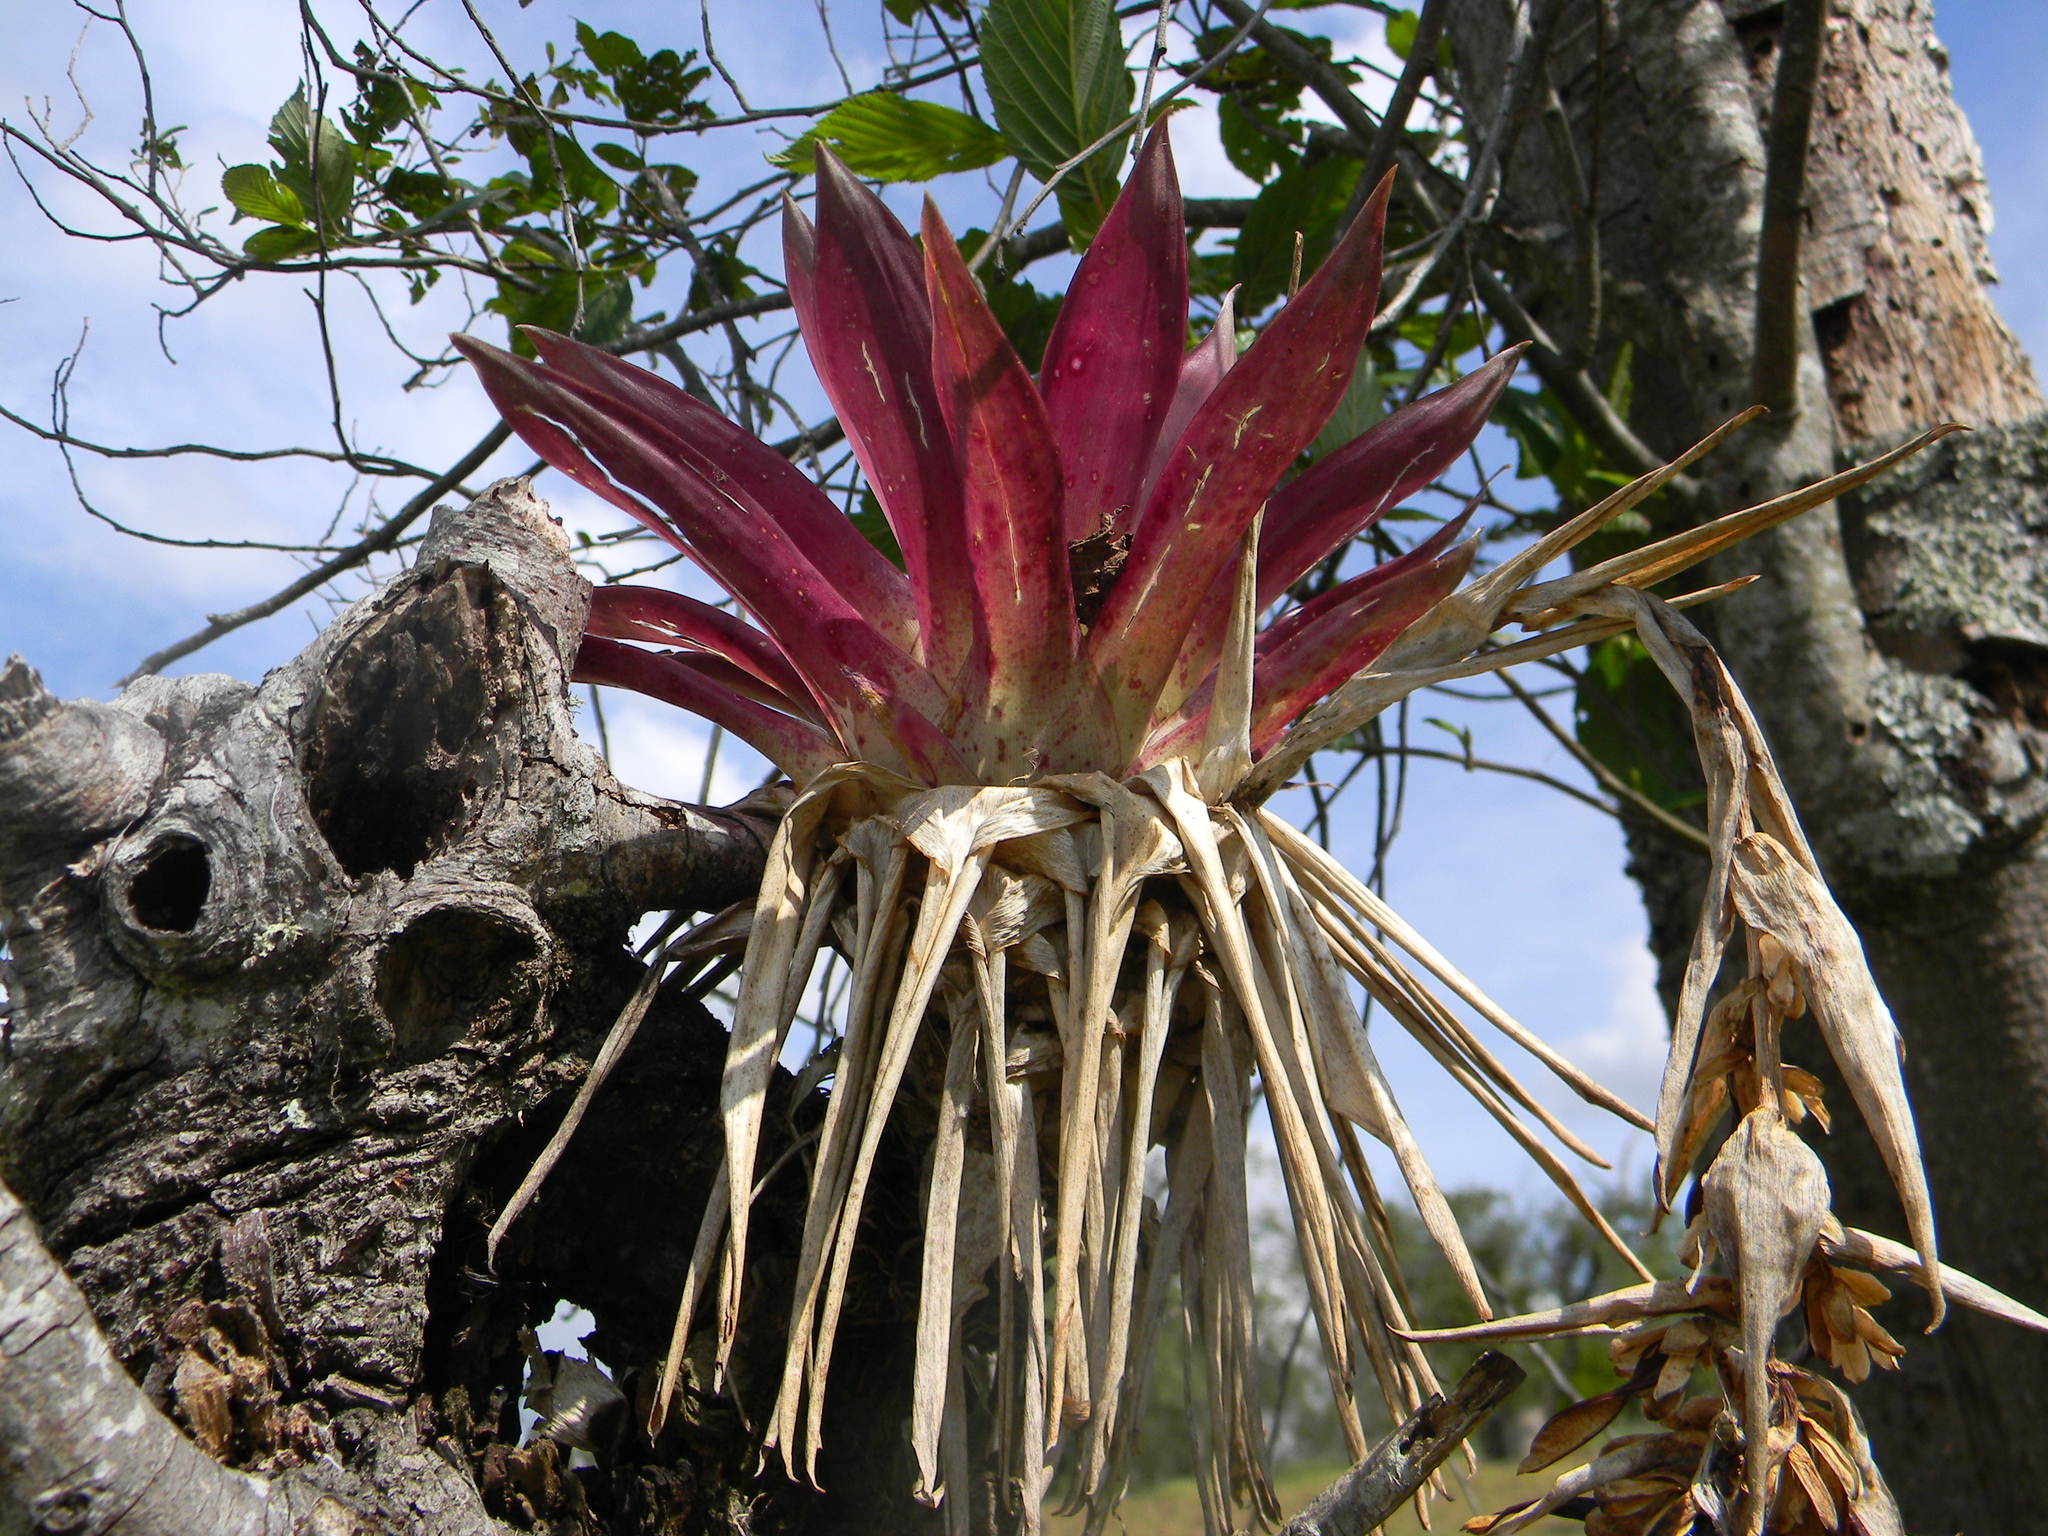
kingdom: Plantae
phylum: Tracheophyta
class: Liliopsida
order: Poales
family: Bromeliaceae
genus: Tillandsia
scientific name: Tillandsia biflora
